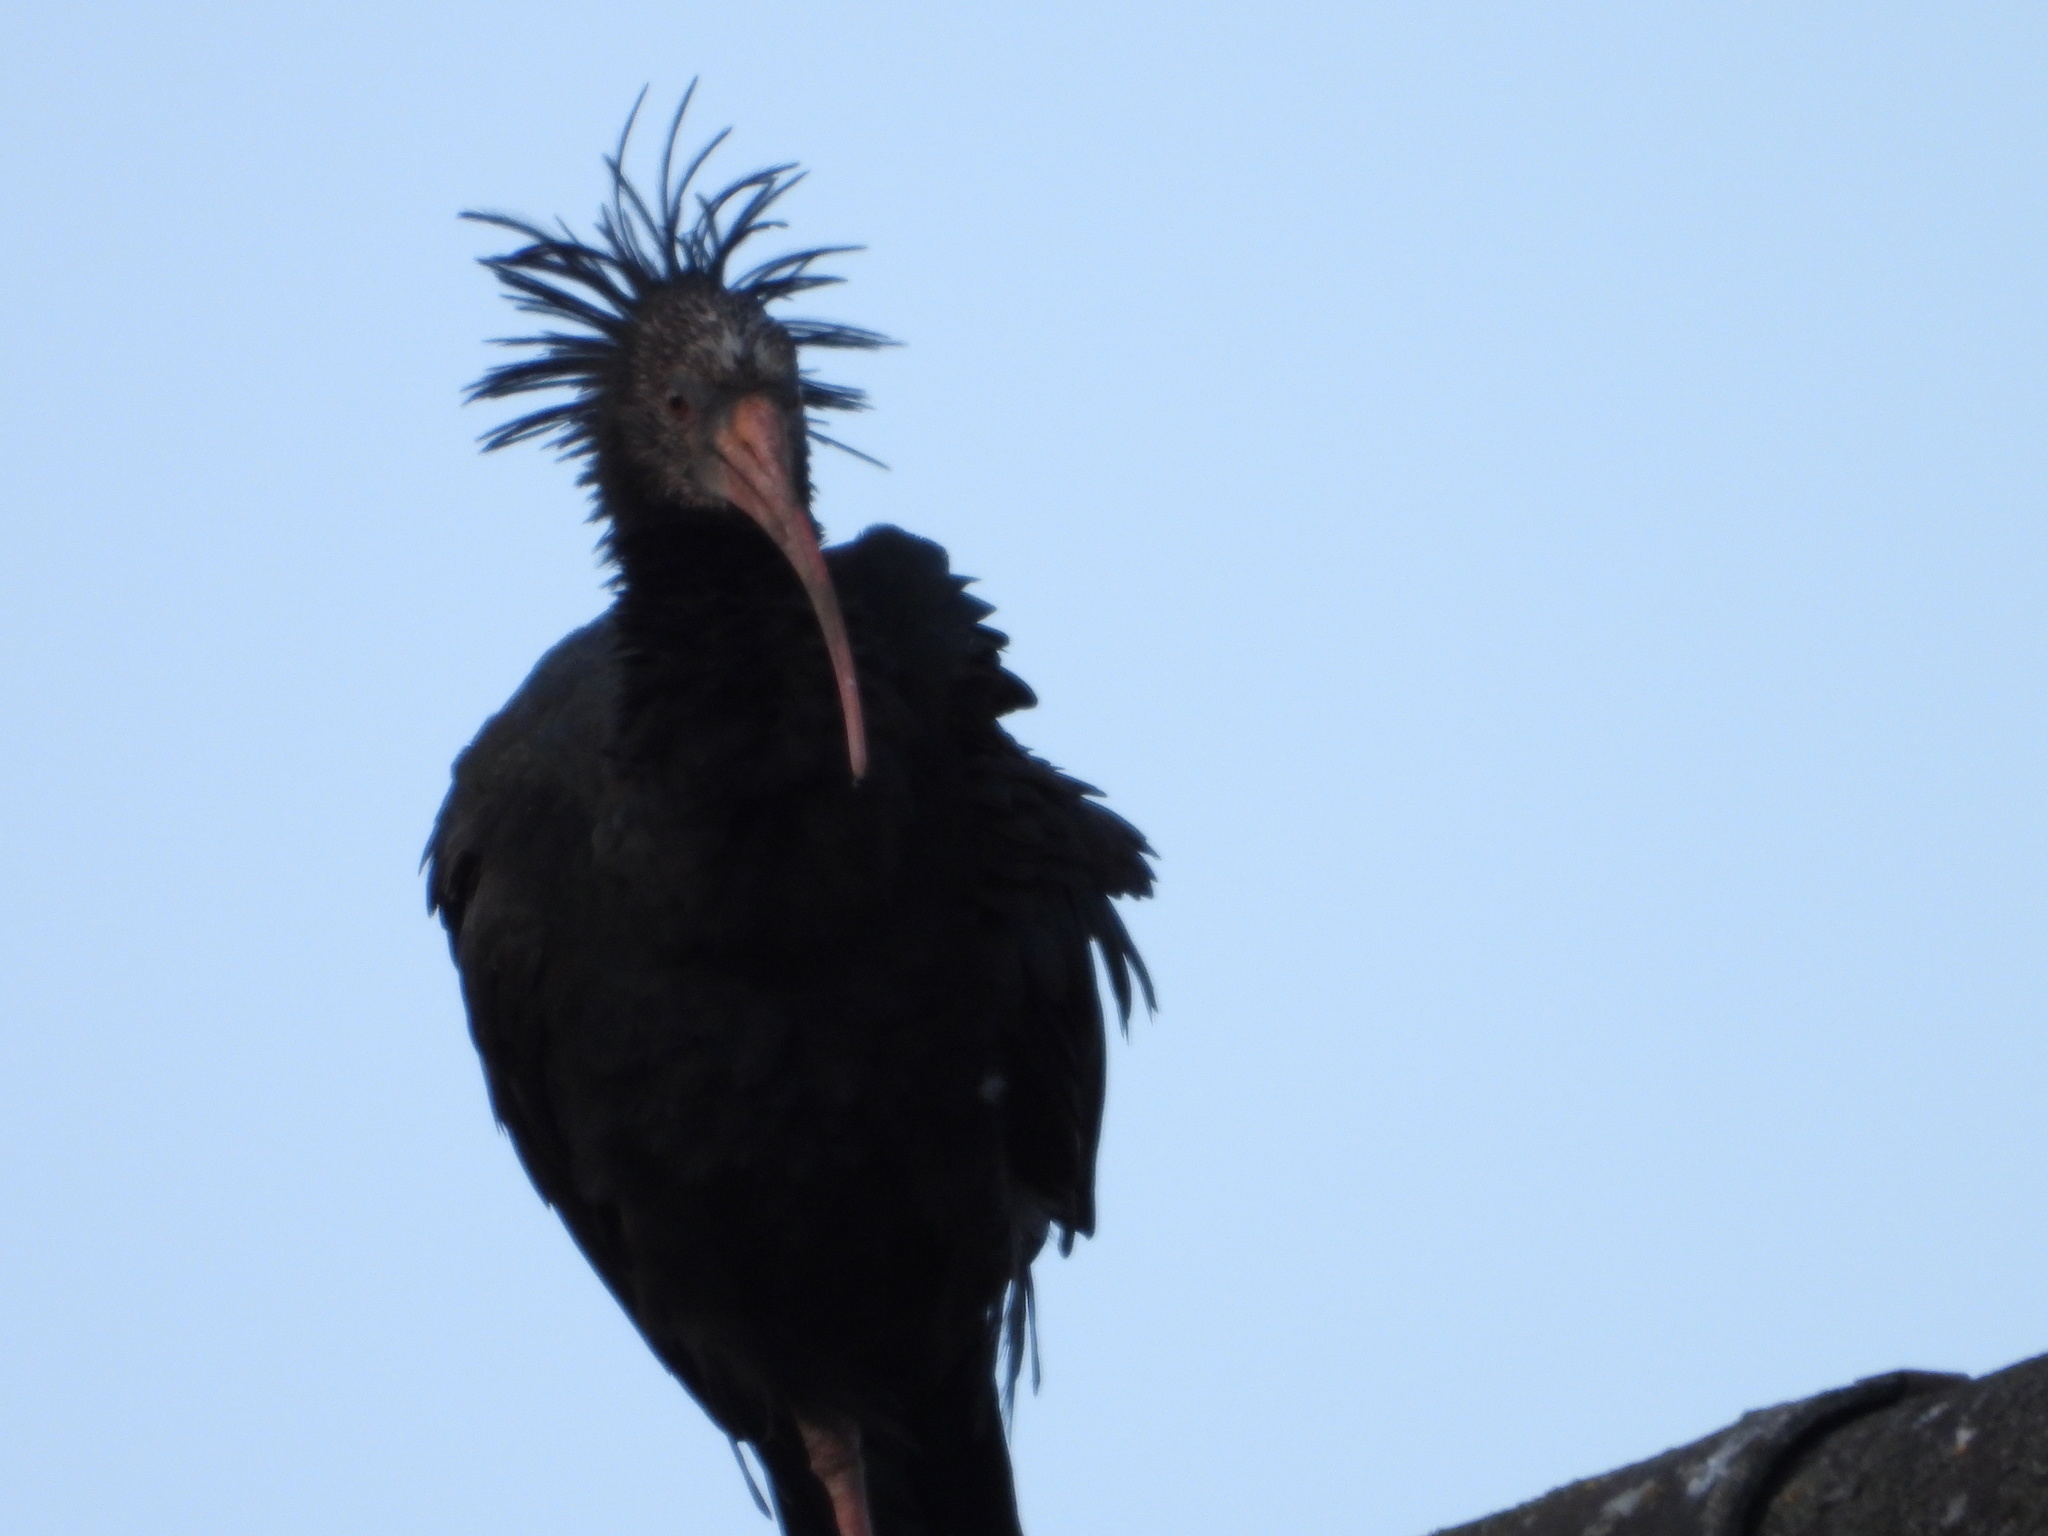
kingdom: Animalia
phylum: Chordata
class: Aves
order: Pelecaniformes
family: Threskiornithidae
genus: Geronticus
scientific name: Geronticus eremita
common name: Northern bald ibis
